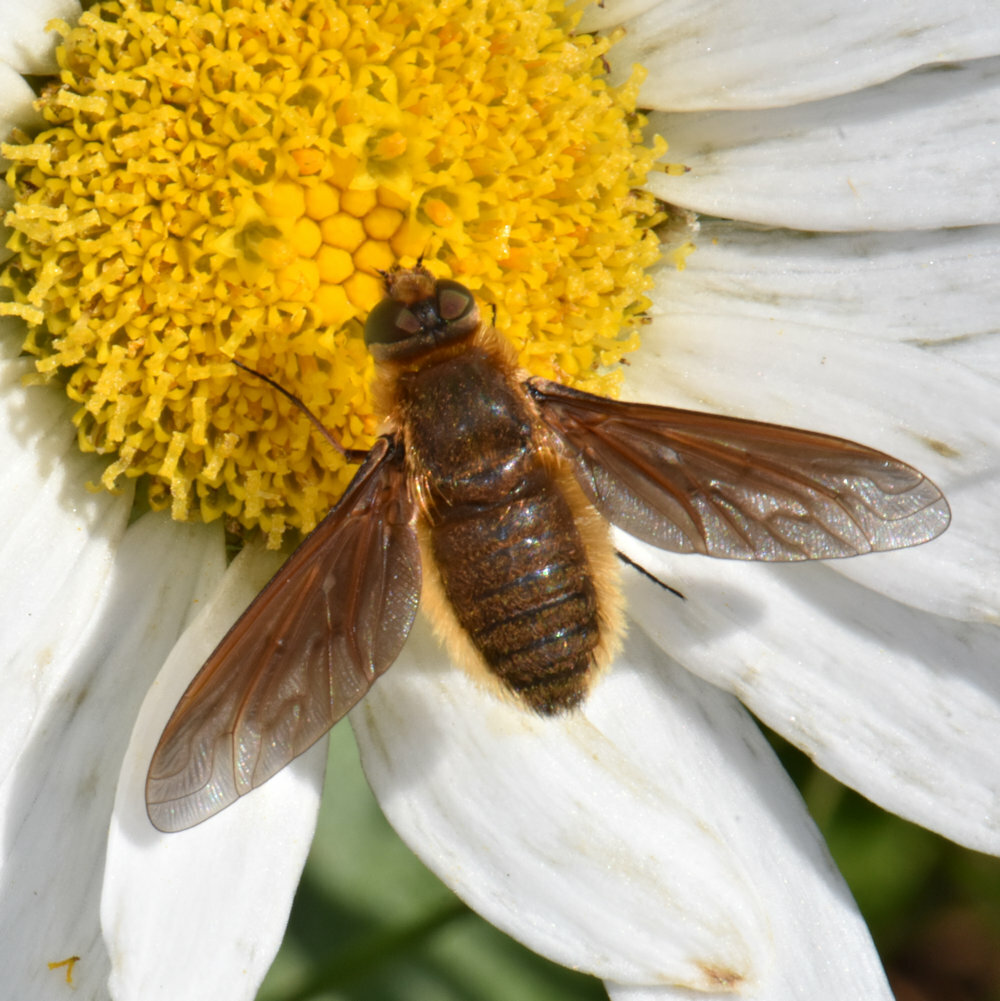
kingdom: Animalia
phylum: Arthropoda
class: Insecta
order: Diptera
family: Bombyliidae
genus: Poecilanthrax
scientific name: Poecilanthrax tegminipennis
